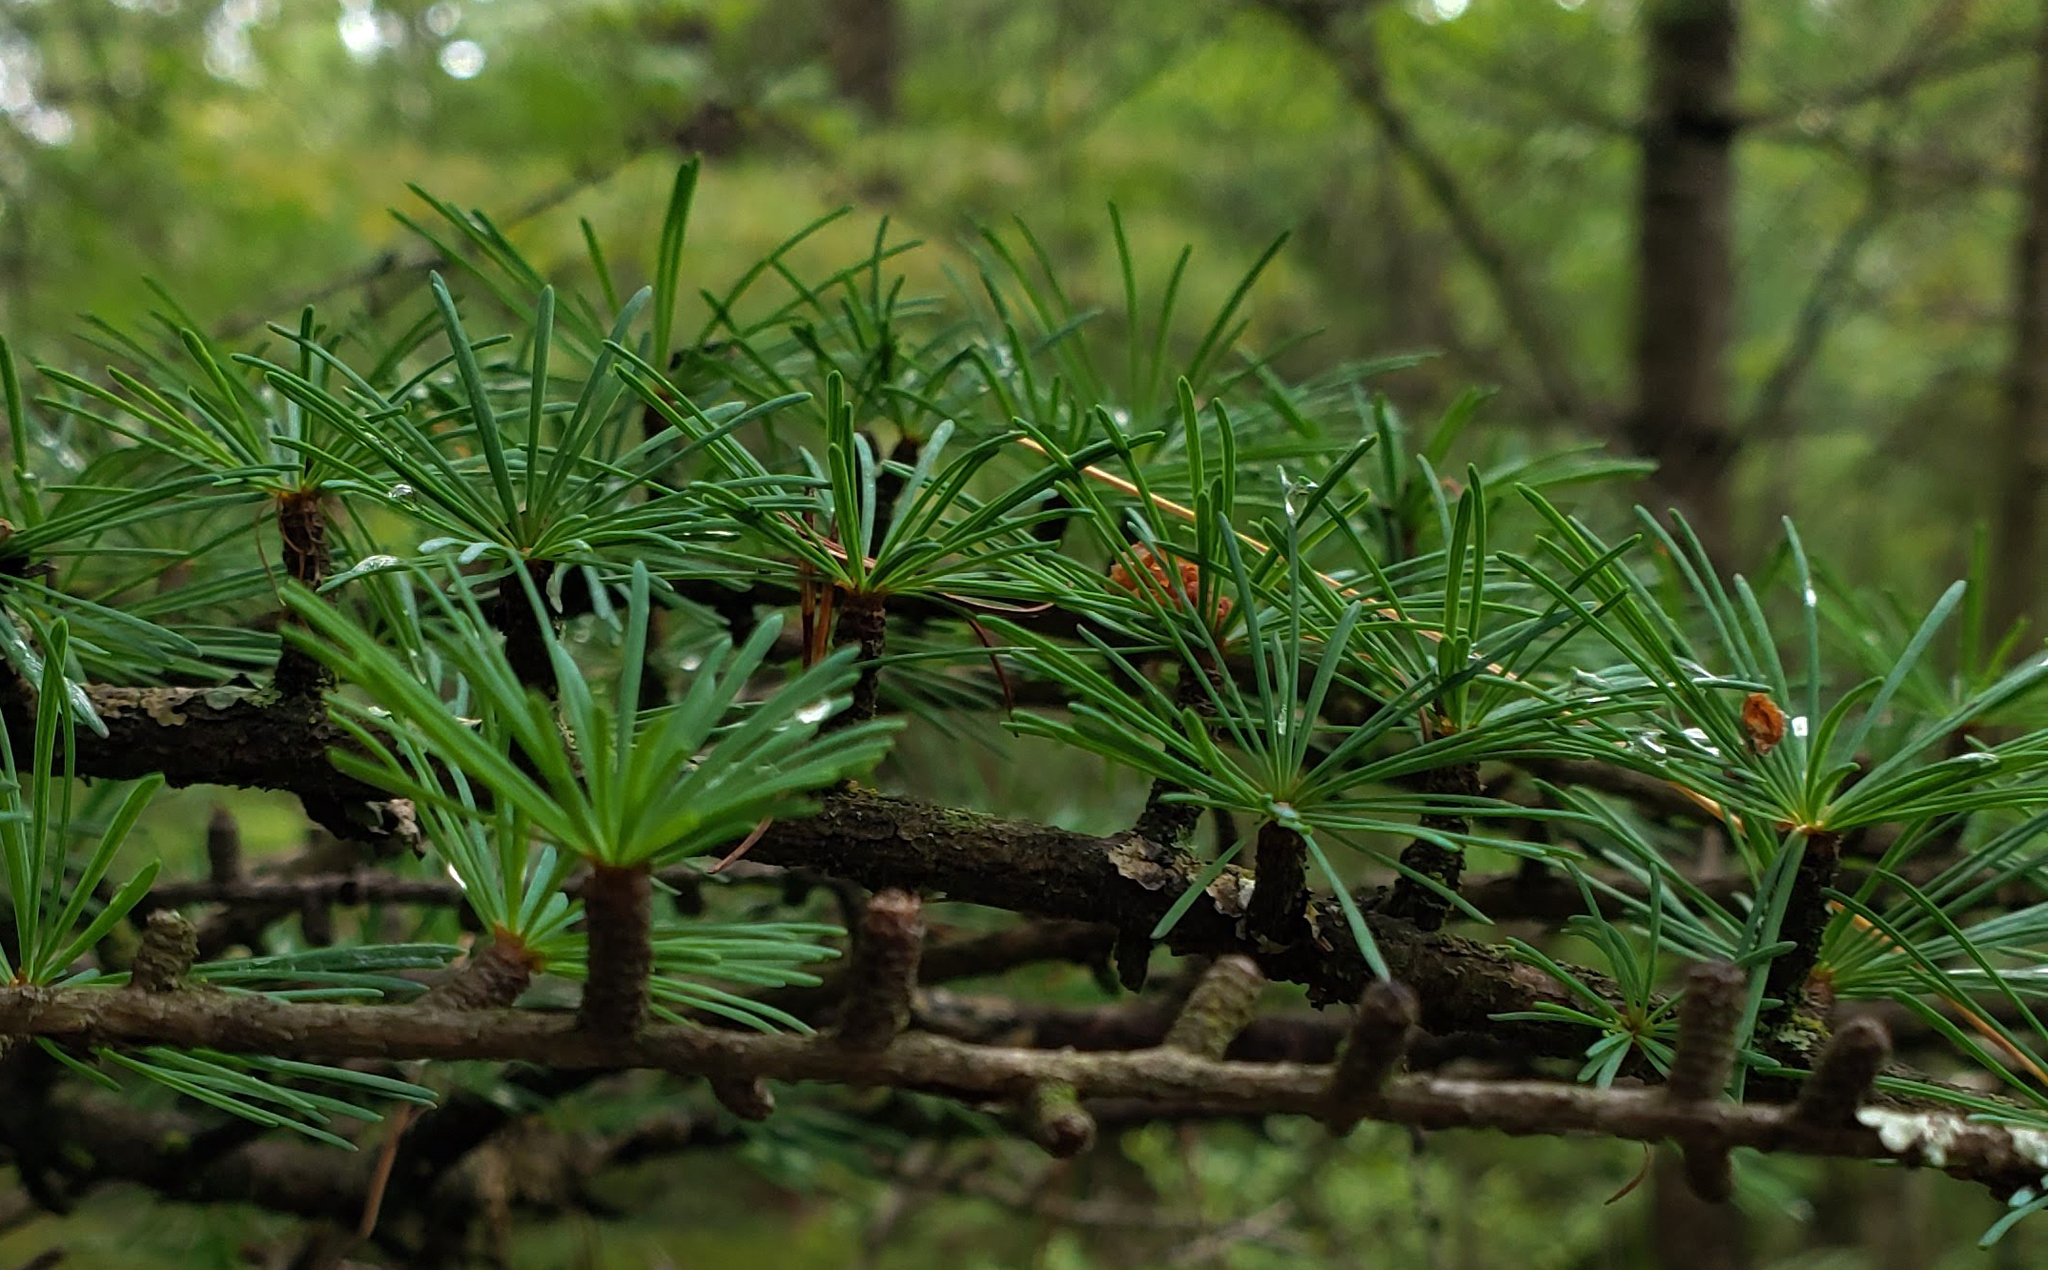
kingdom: Plantae
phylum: Tracheophyta
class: Pinopsida
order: Pinales
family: Pinaceae
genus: Larix
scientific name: Larix laricina
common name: American larch
